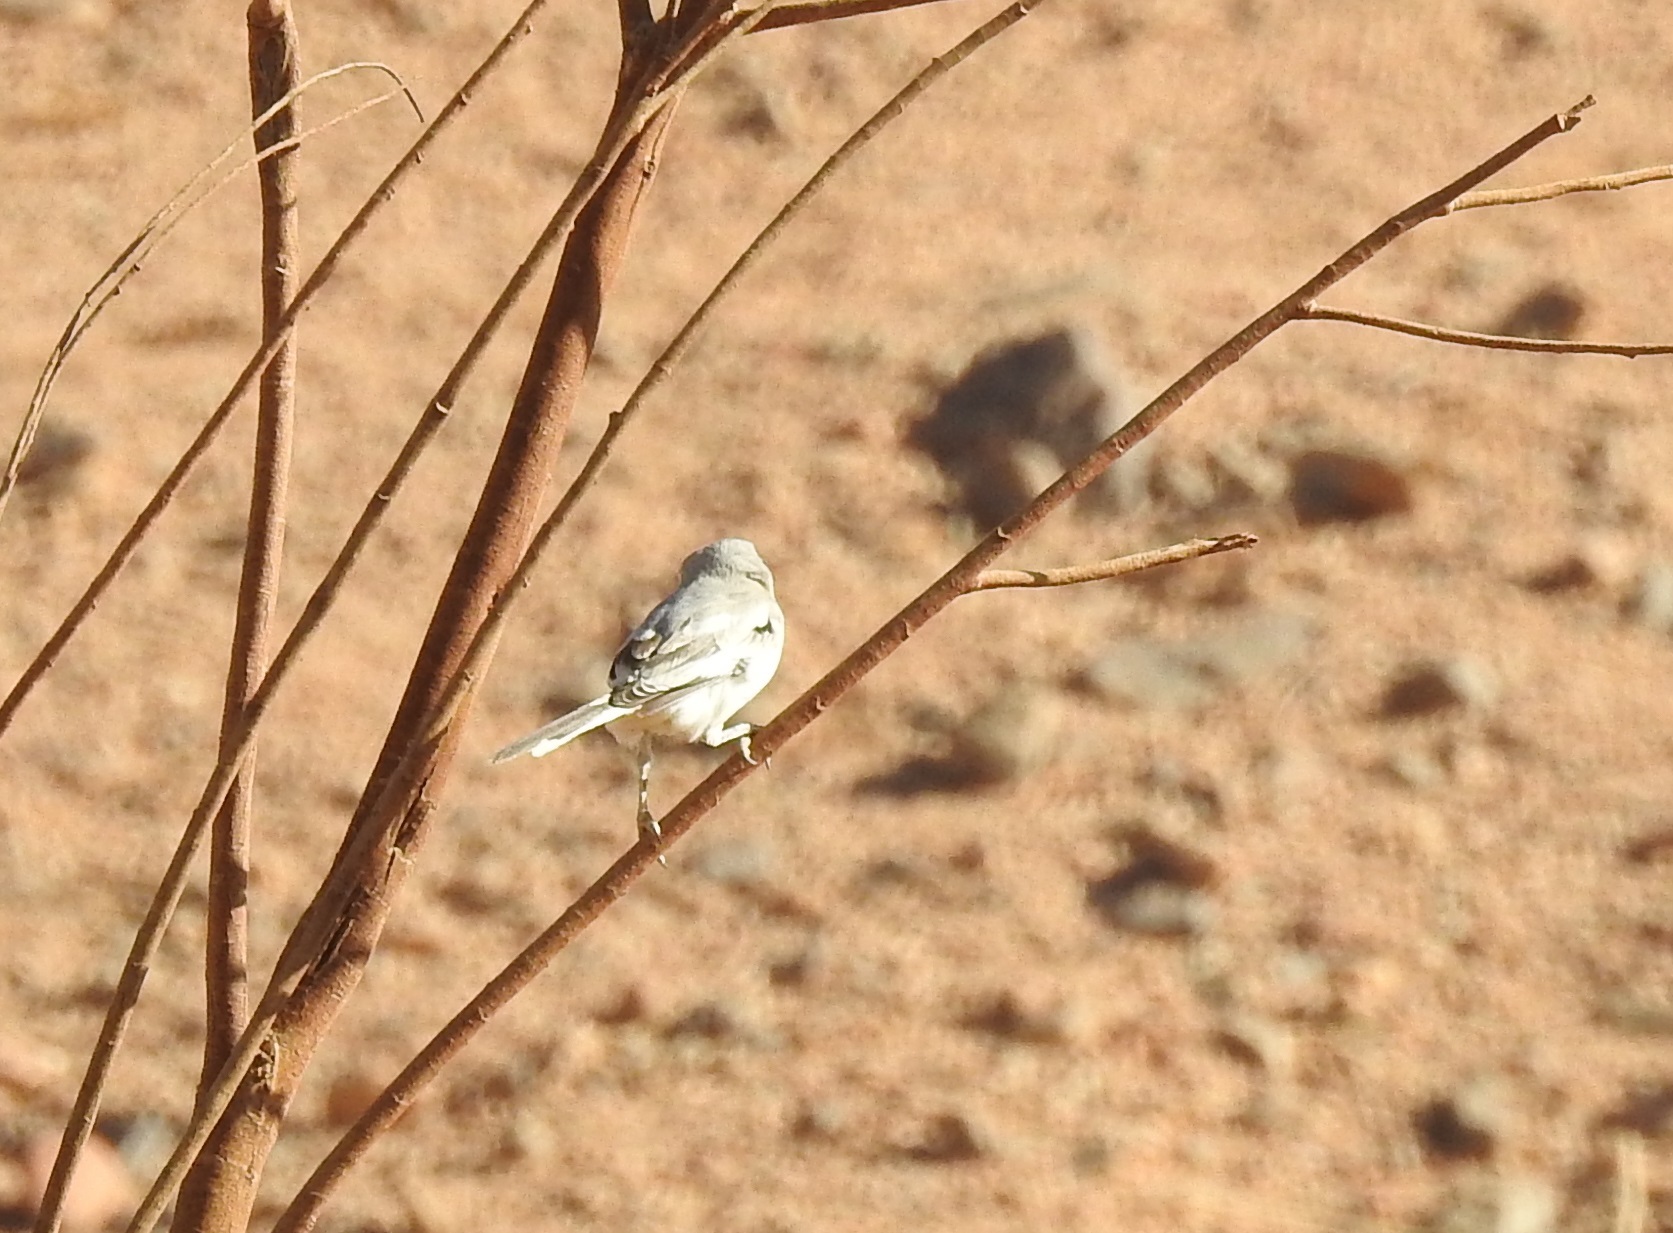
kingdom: Animalia
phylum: Chordata
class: Aves
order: Passeriformes
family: Laniidae
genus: Lanius
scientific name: Lanius excubitor
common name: Great grey shrike
